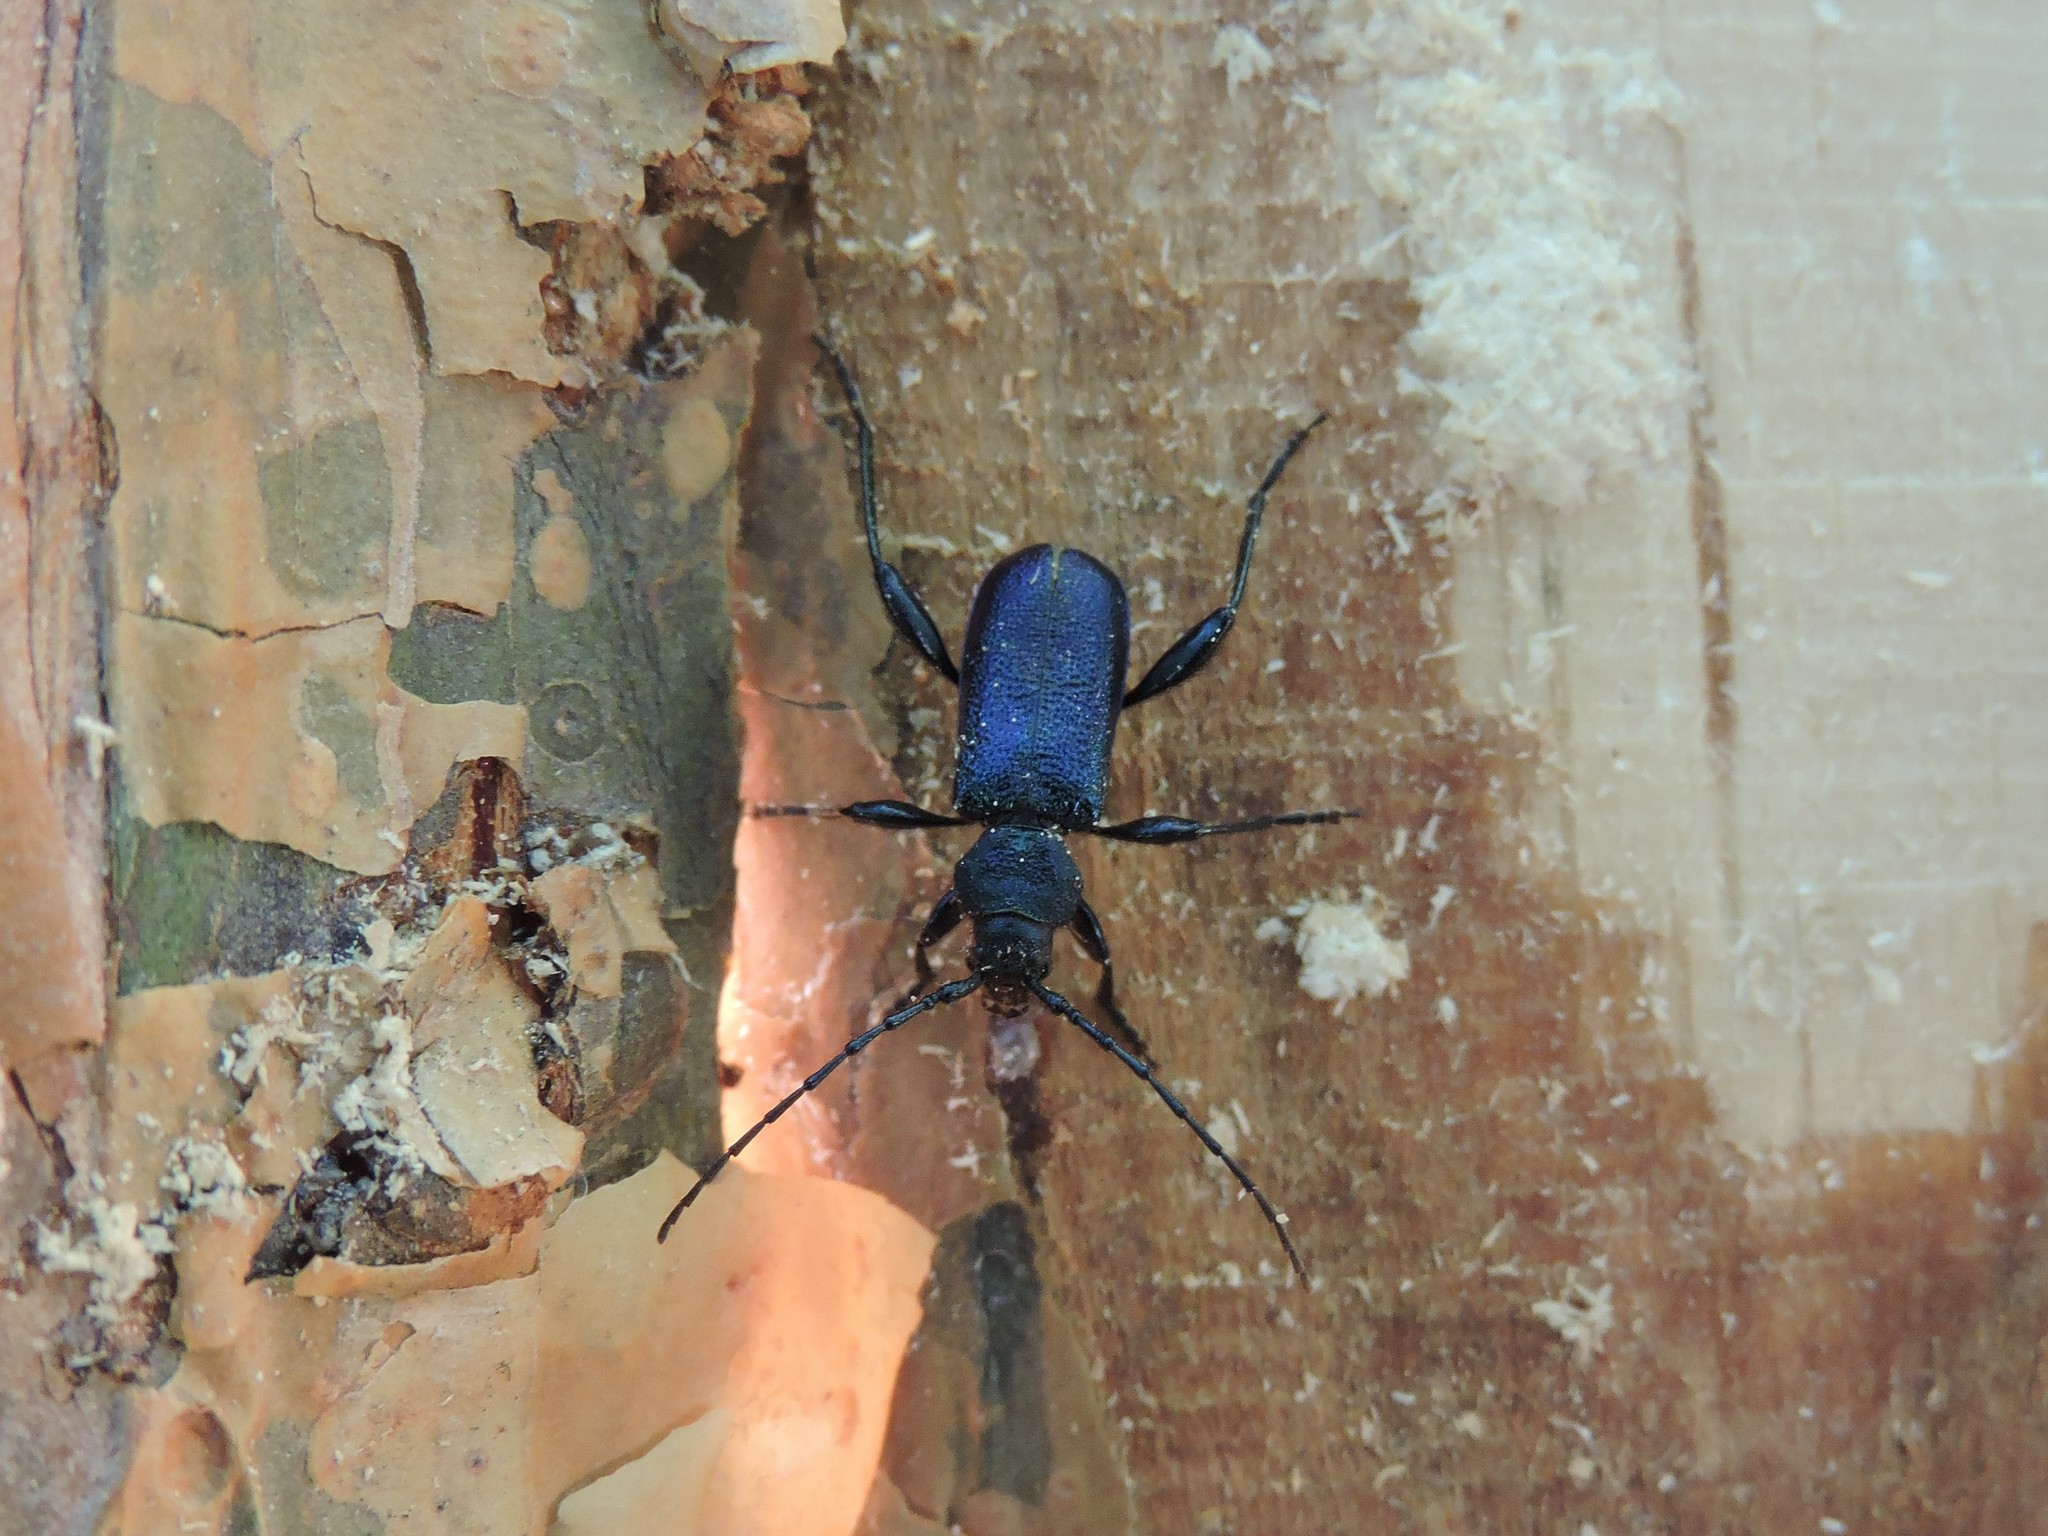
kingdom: Animalia
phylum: Arthropoda
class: Insecta
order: Coleoptera
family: Cerambycidae
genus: Callidium
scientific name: Callidium violaceum
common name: Violet tanbark beetle
